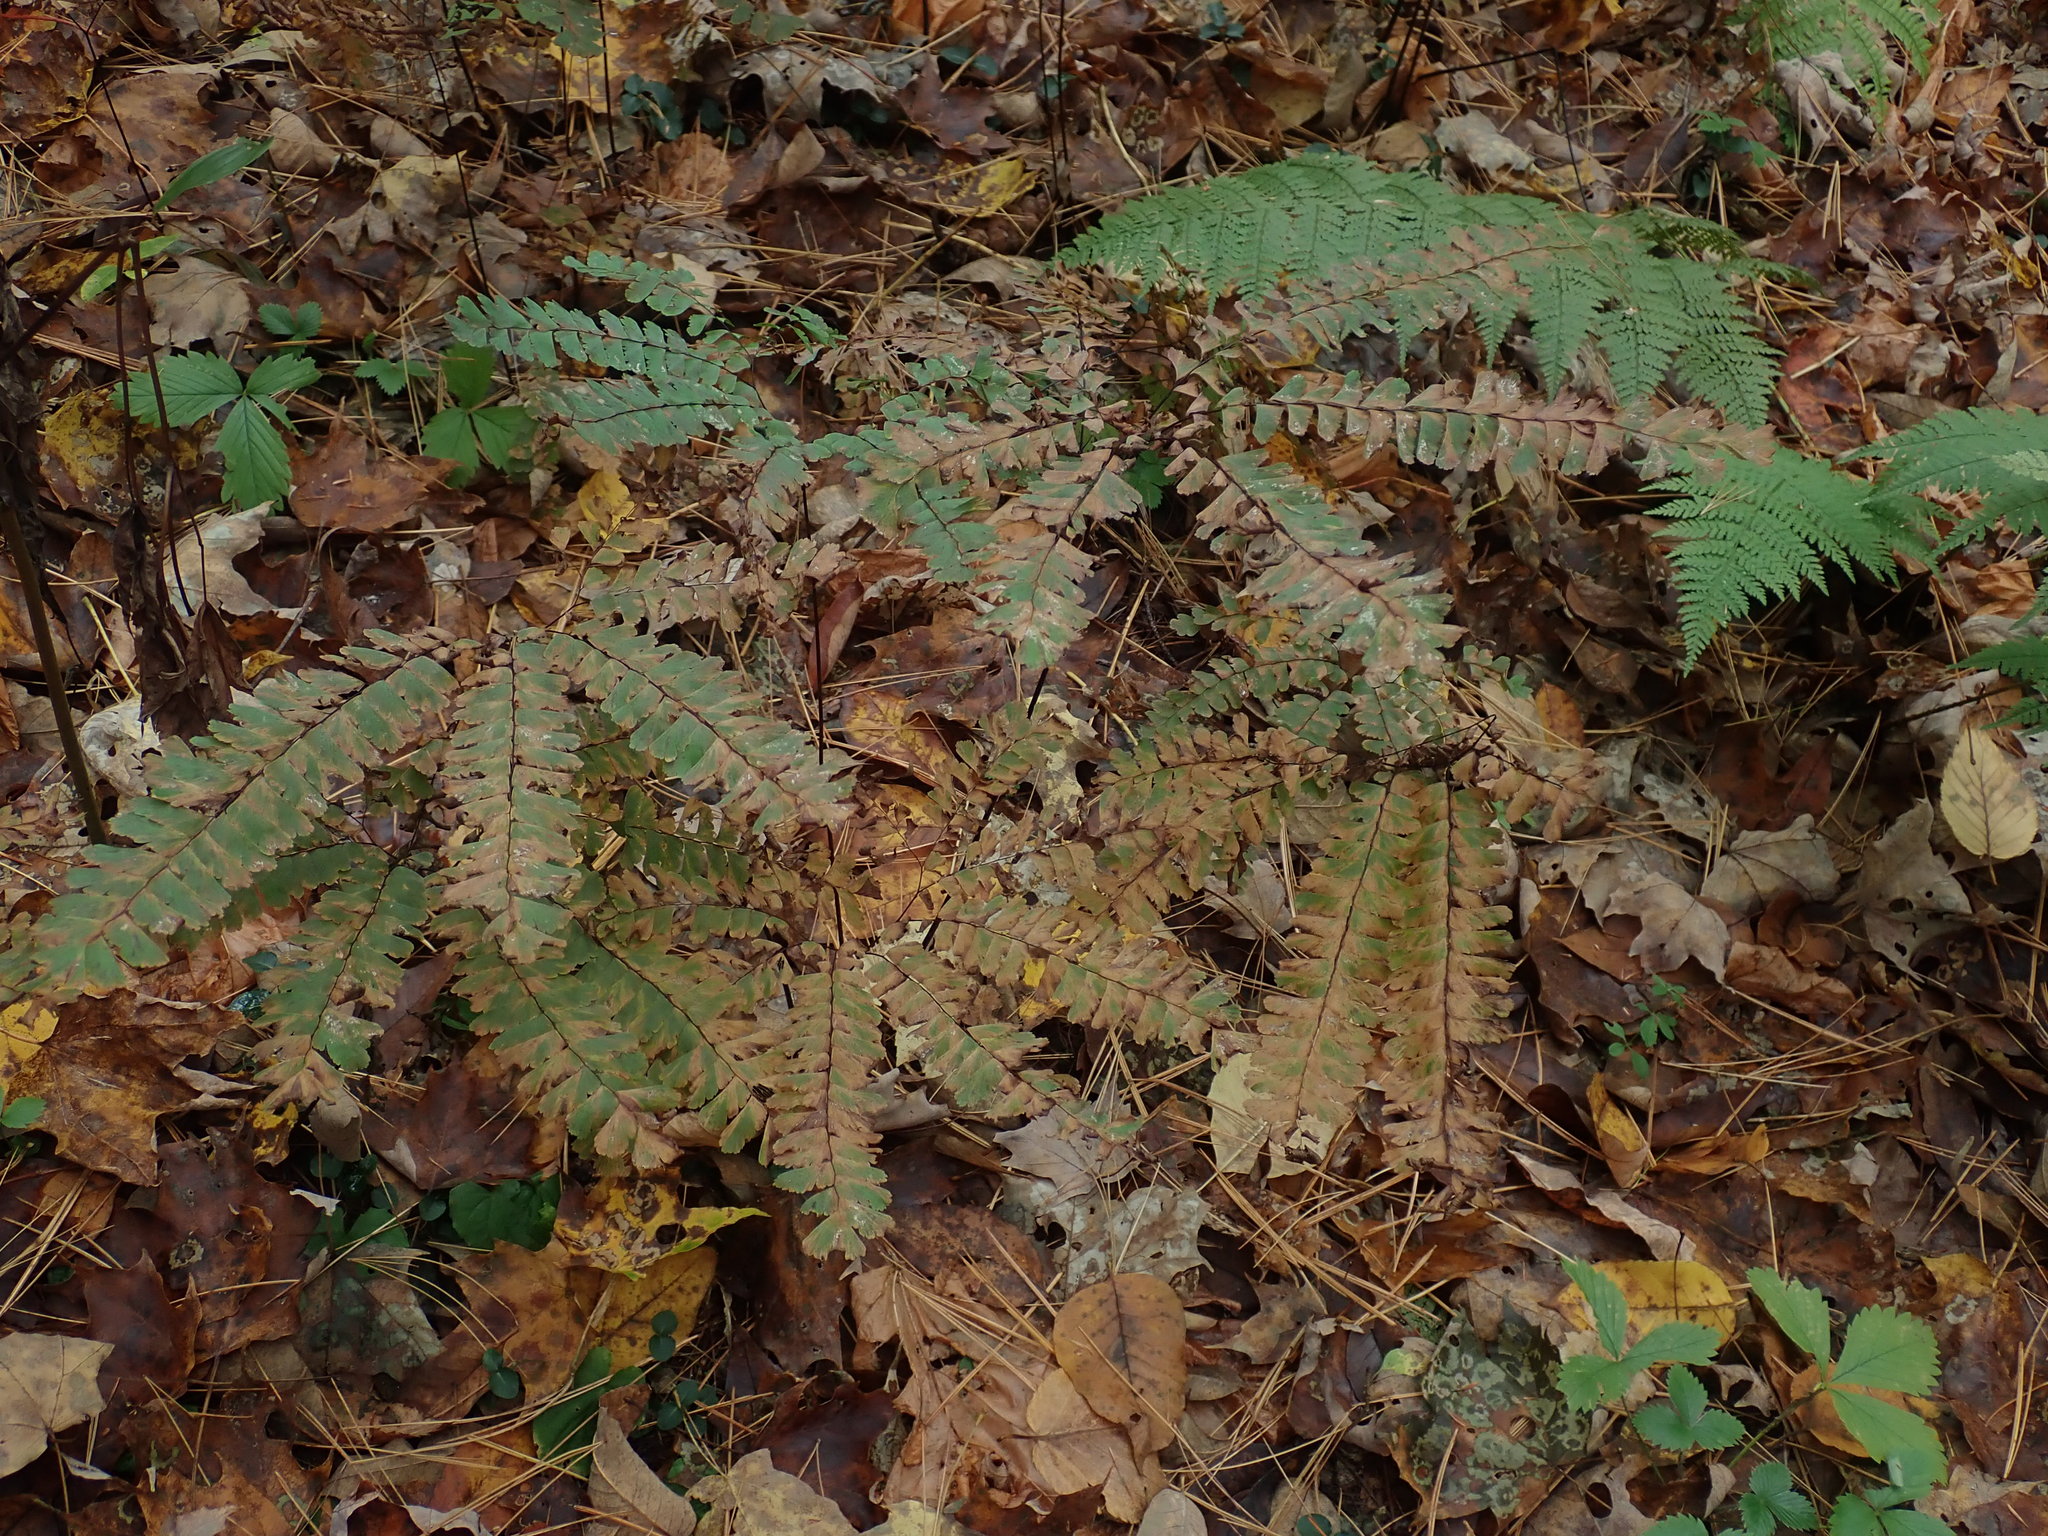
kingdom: Plantae
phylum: Tracheophyta
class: Polypodiopsida
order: Polypodiales
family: Pteridaceae
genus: Adiantum
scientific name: Adiantum pedatum
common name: Five-finger fern
